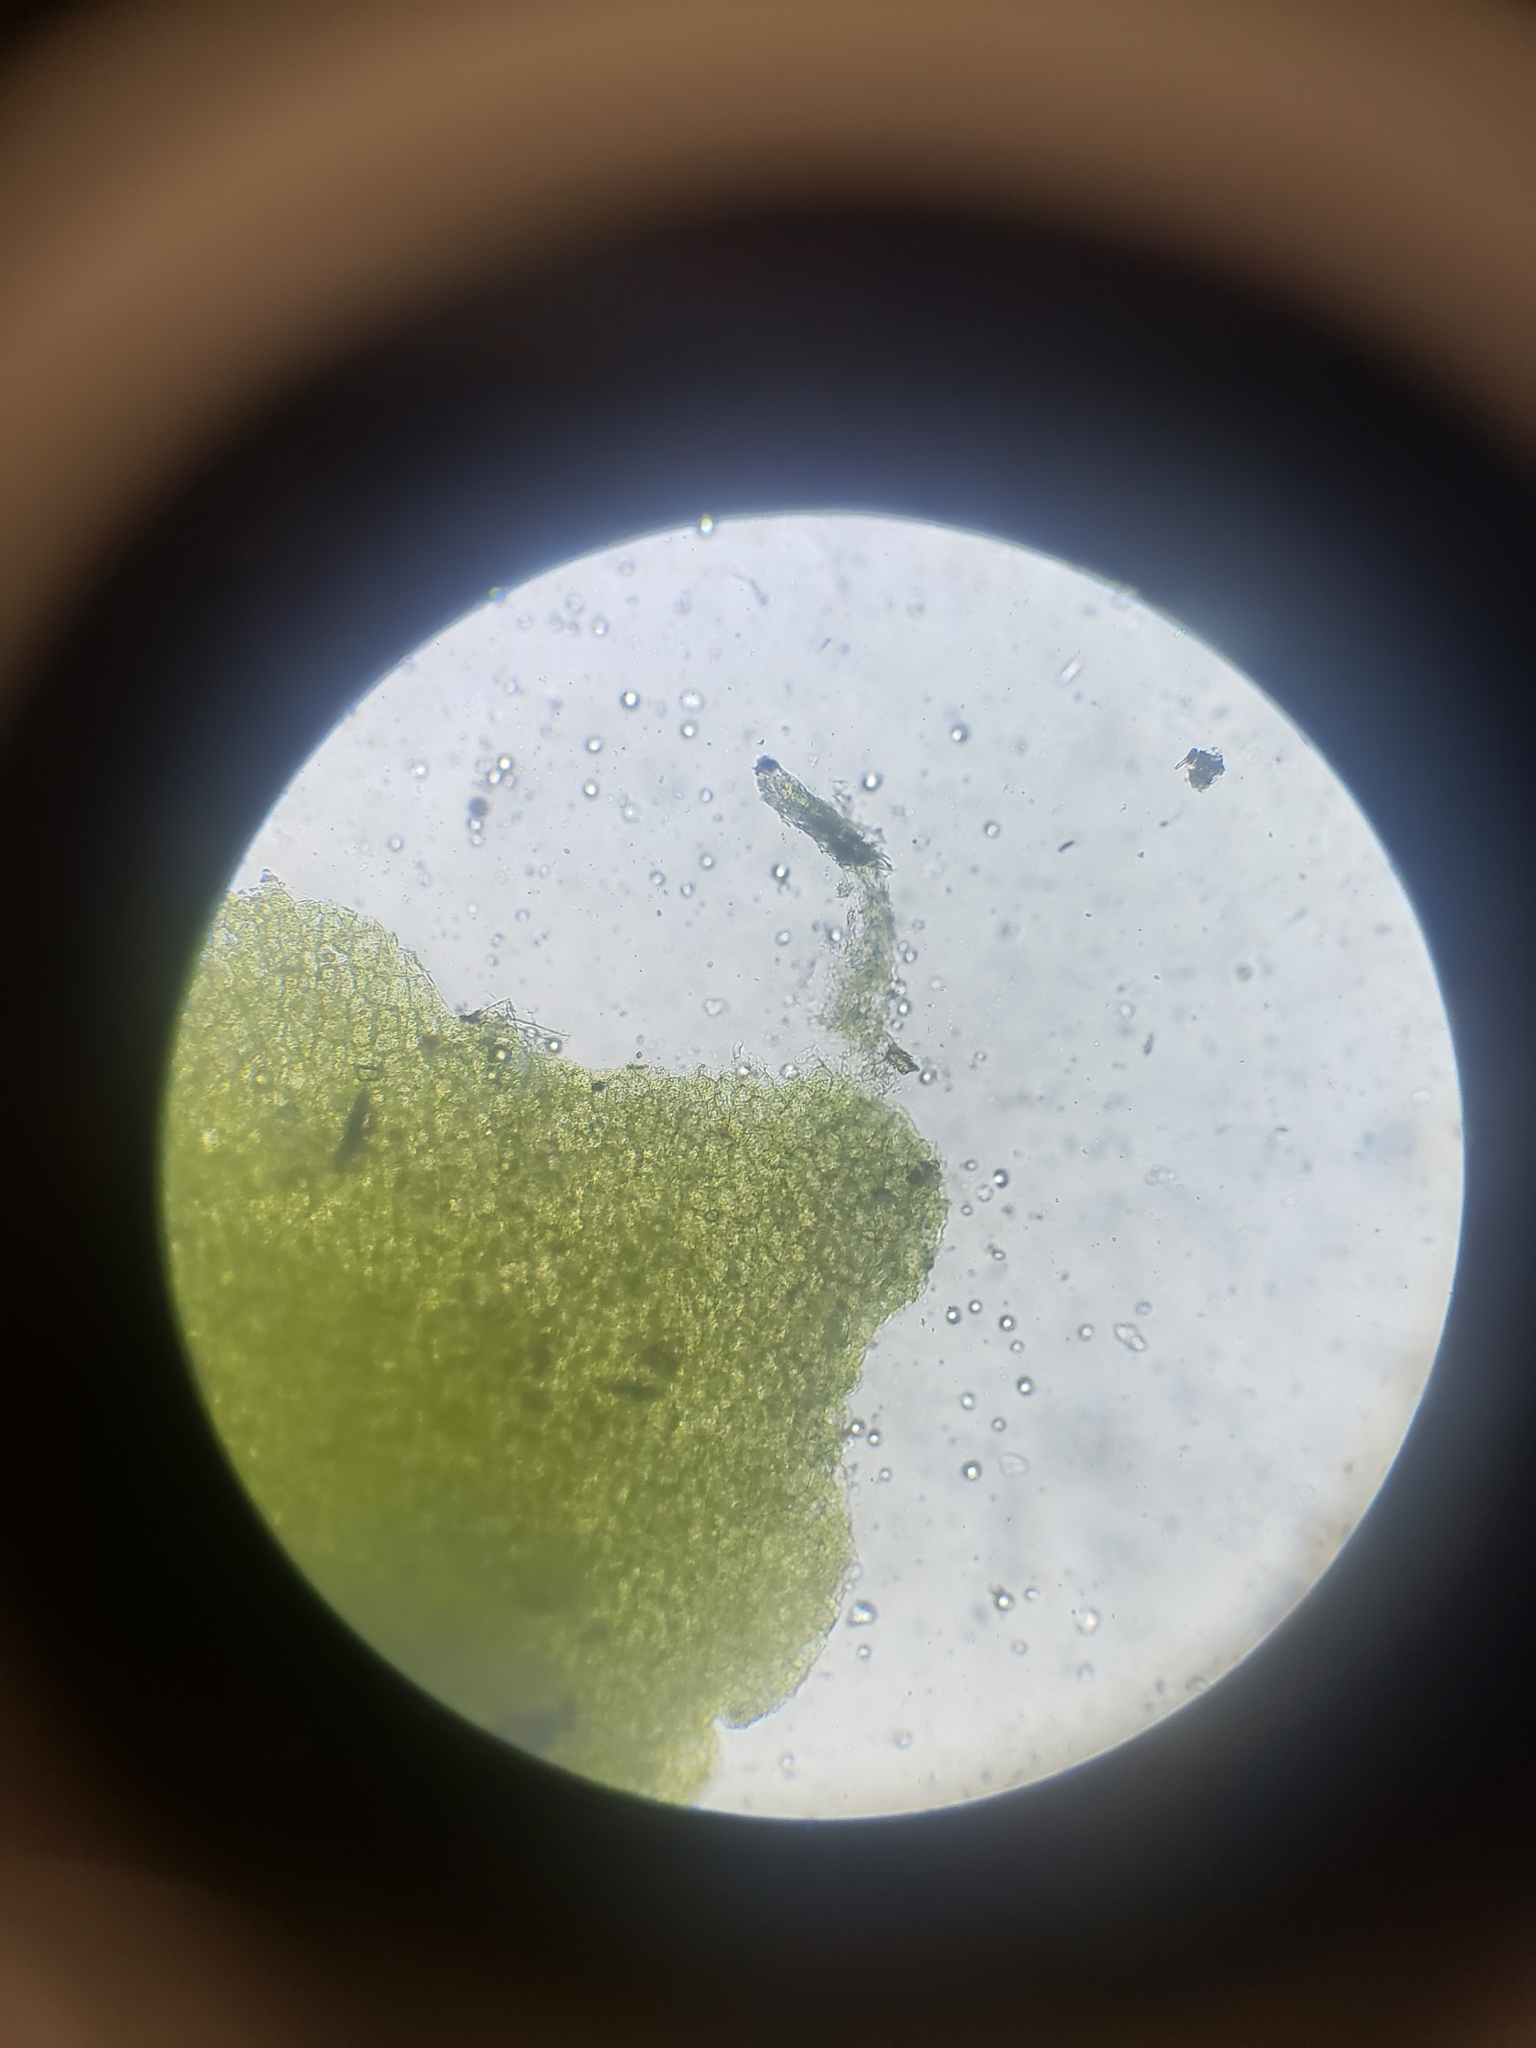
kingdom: Plantae
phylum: Marchantiophyta
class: Jungermanniopsida
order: Metzgeriales
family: Aneuraceae
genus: Aneura
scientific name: Aneura pinguis
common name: Common greasewort
